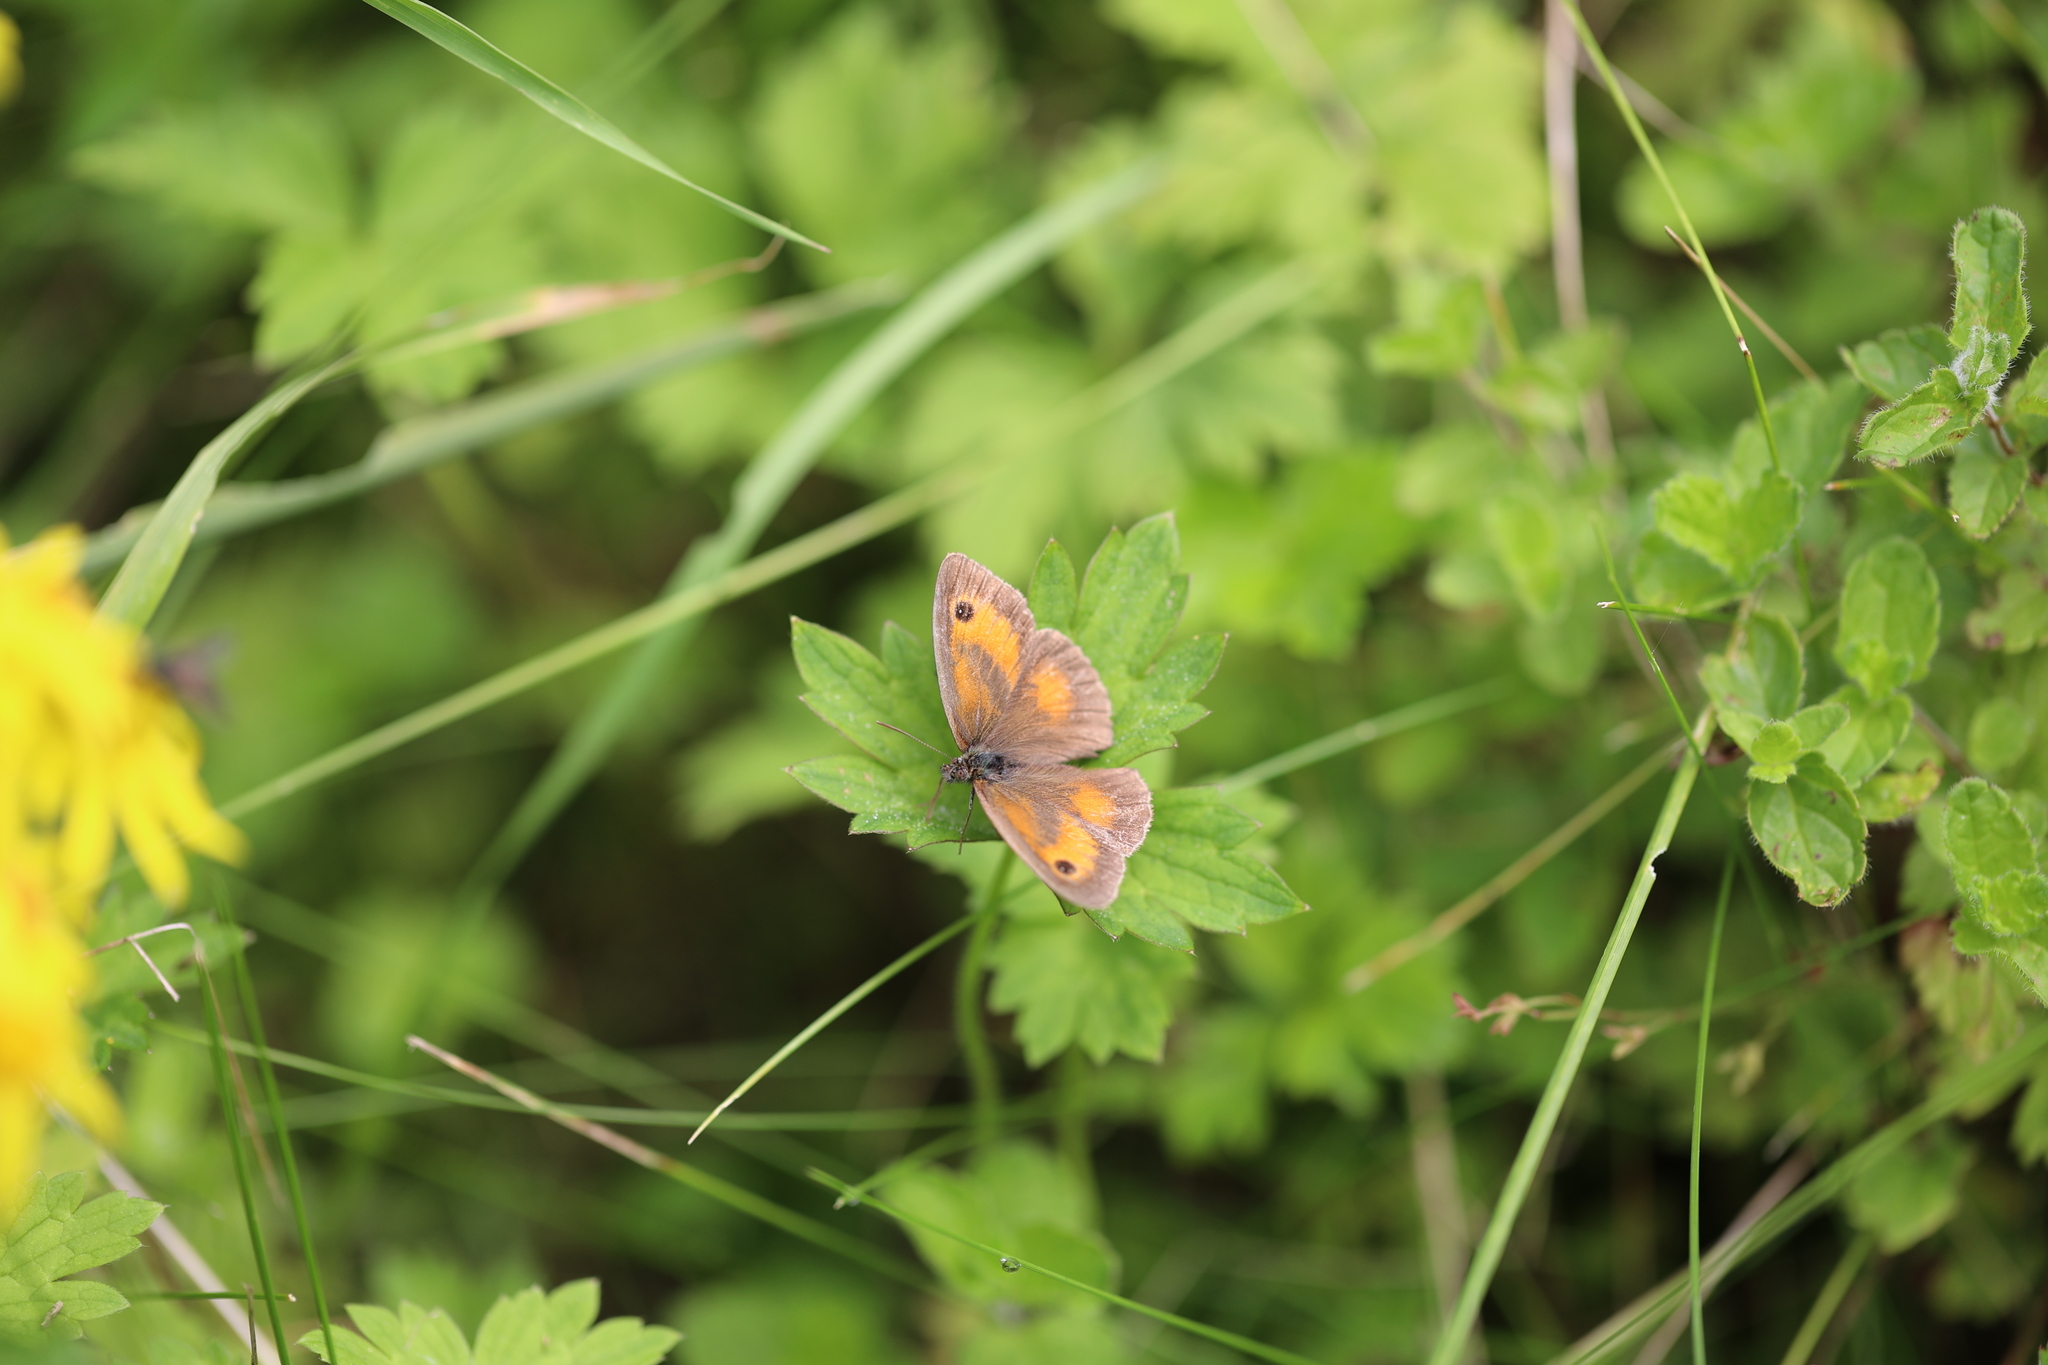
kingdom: Animalia
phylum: Arthropoda
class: Insecta
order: Lepidoptera
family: Nymphalidae
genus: Pyronia
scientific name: Pyronia tithonus
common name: Gatekeeper
